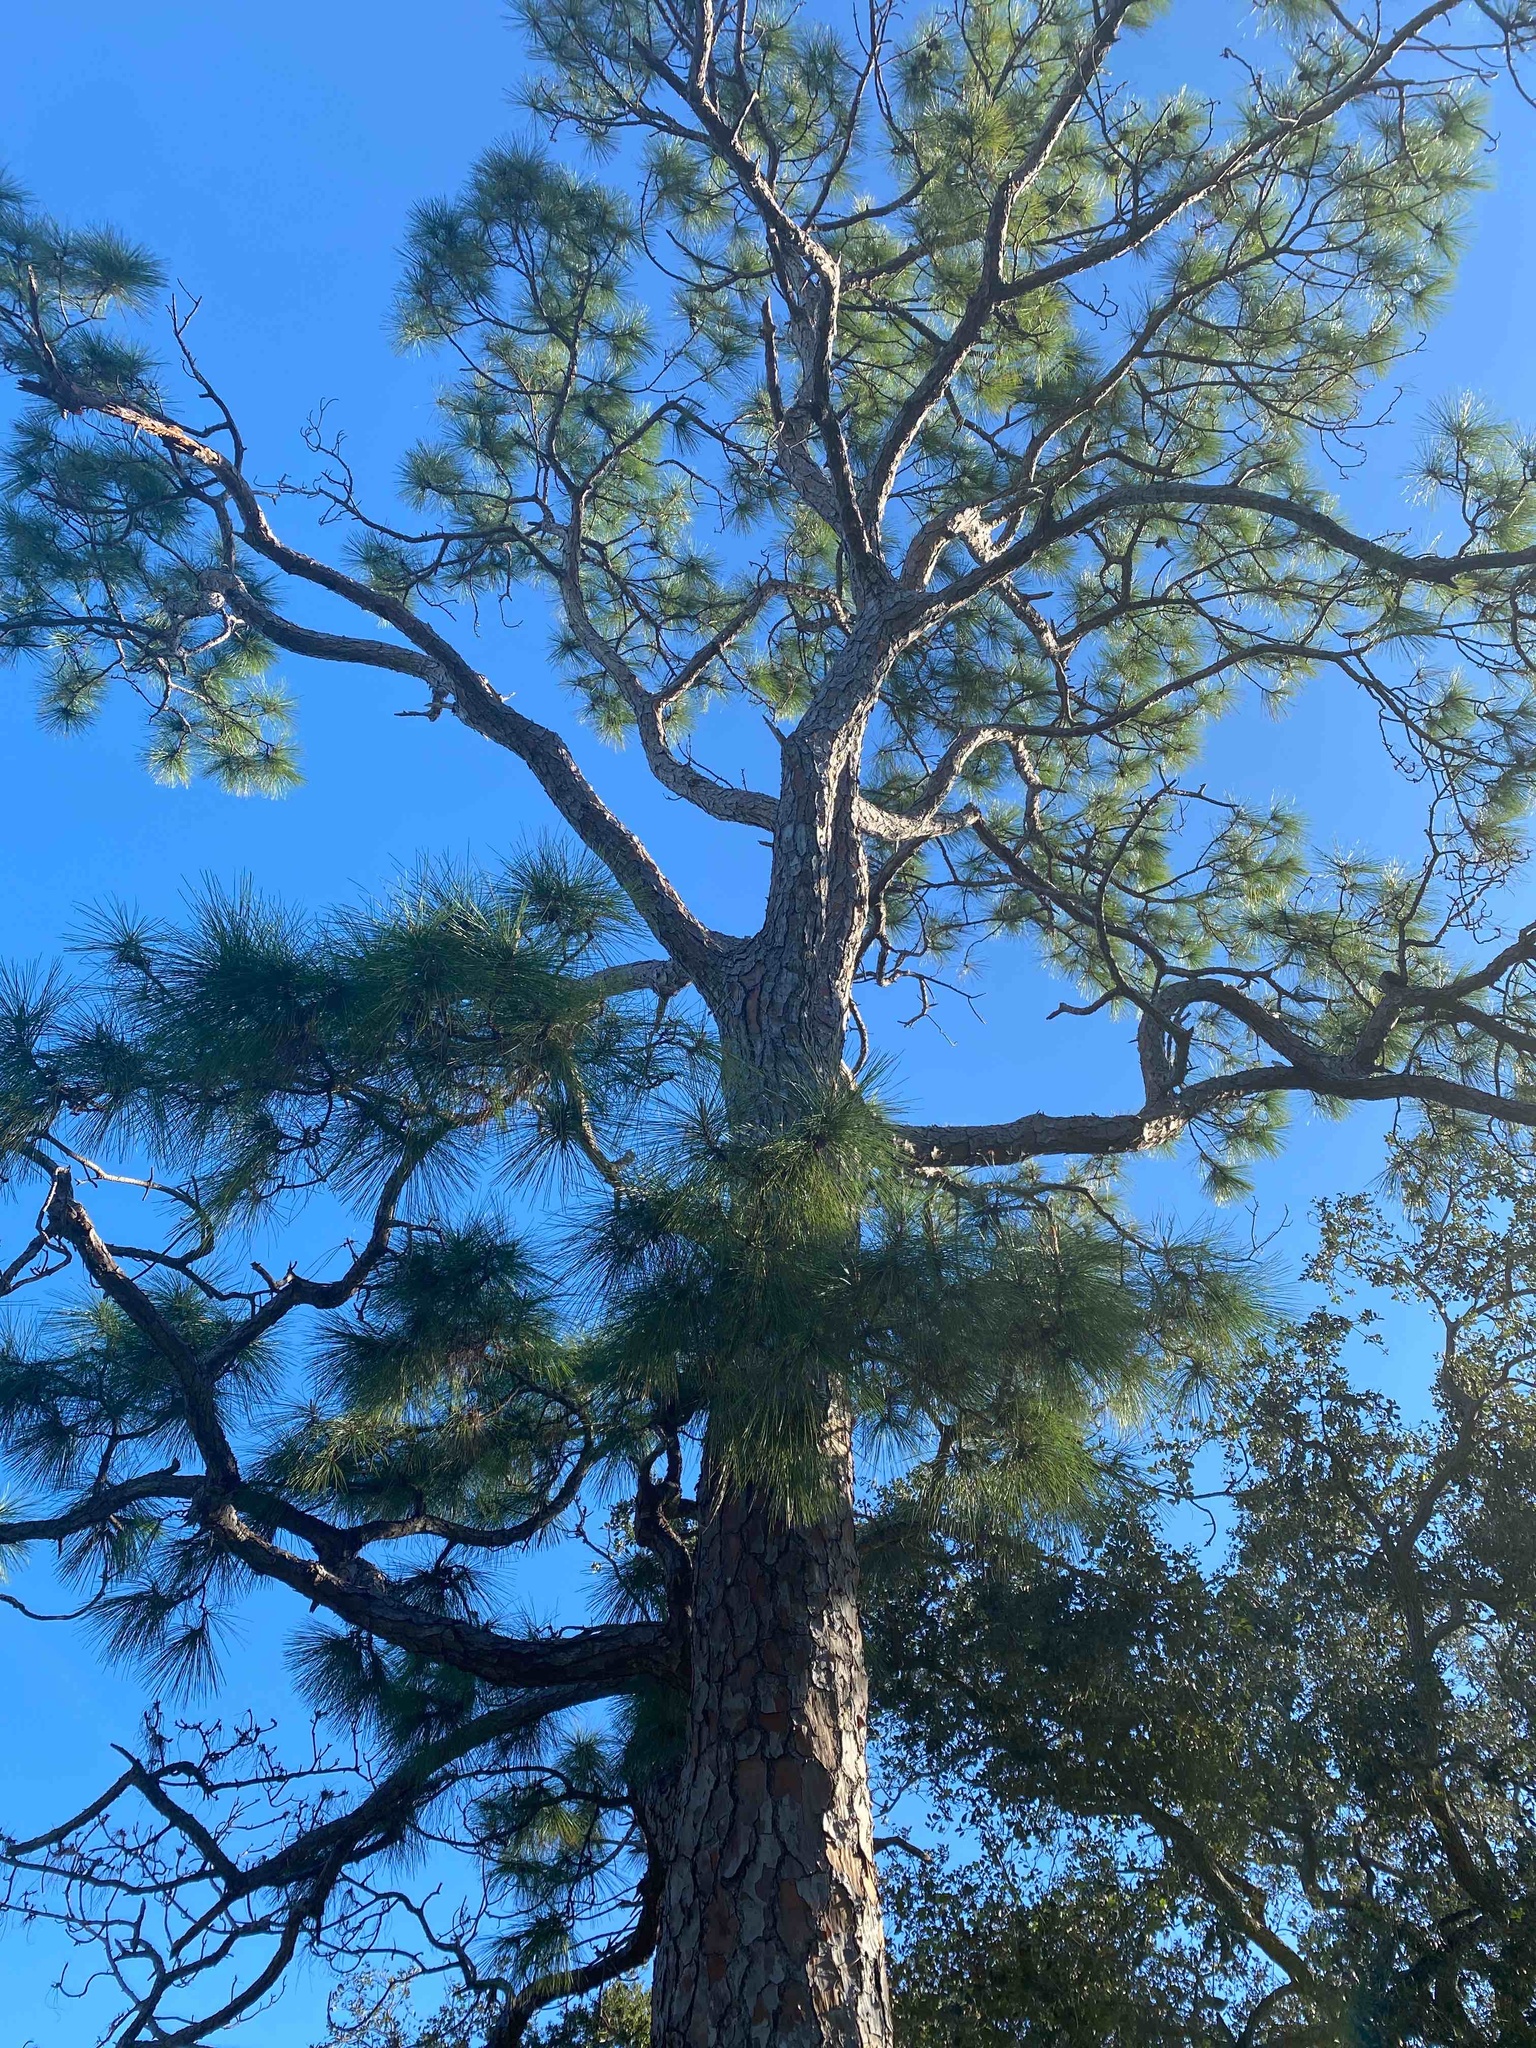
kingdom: Plantae
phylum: Tracheophyta
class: Pinopsida
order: Pinales
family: Pinaceae
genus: Pinus
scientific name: Pinus elliottii
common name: Slash pine
